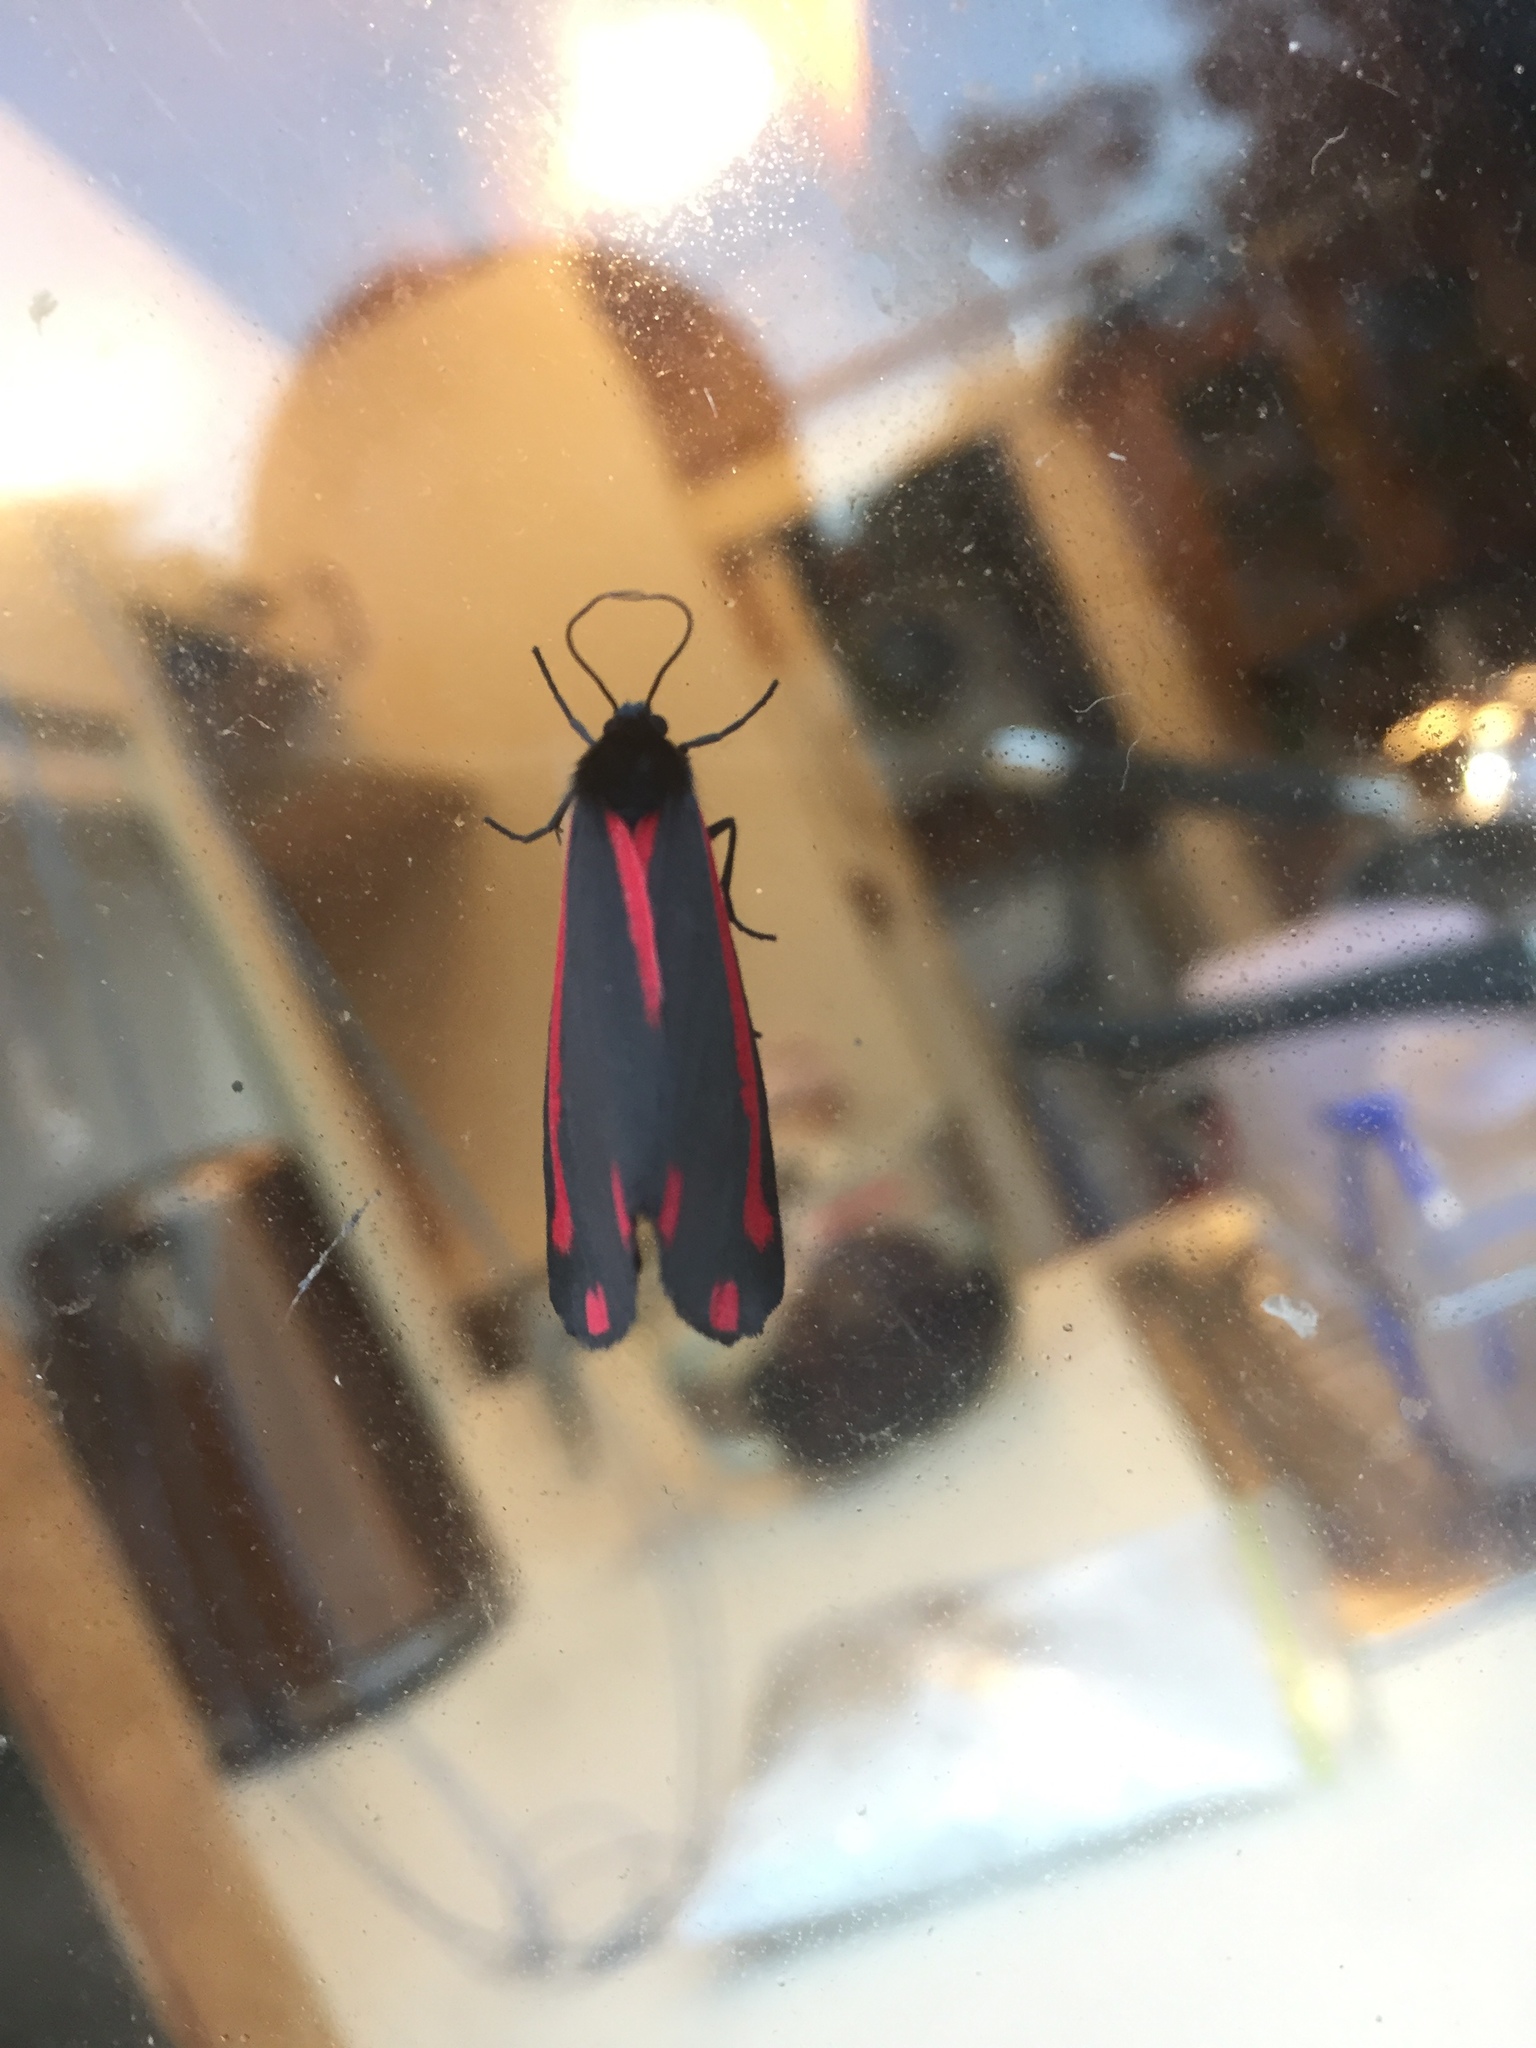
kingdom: Animalia
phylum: Arthropoda
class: Insecta
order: Lepidoptera
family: Erebidae
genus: Tyria
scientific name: Tyria jacobaeae
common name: Cinnabar
